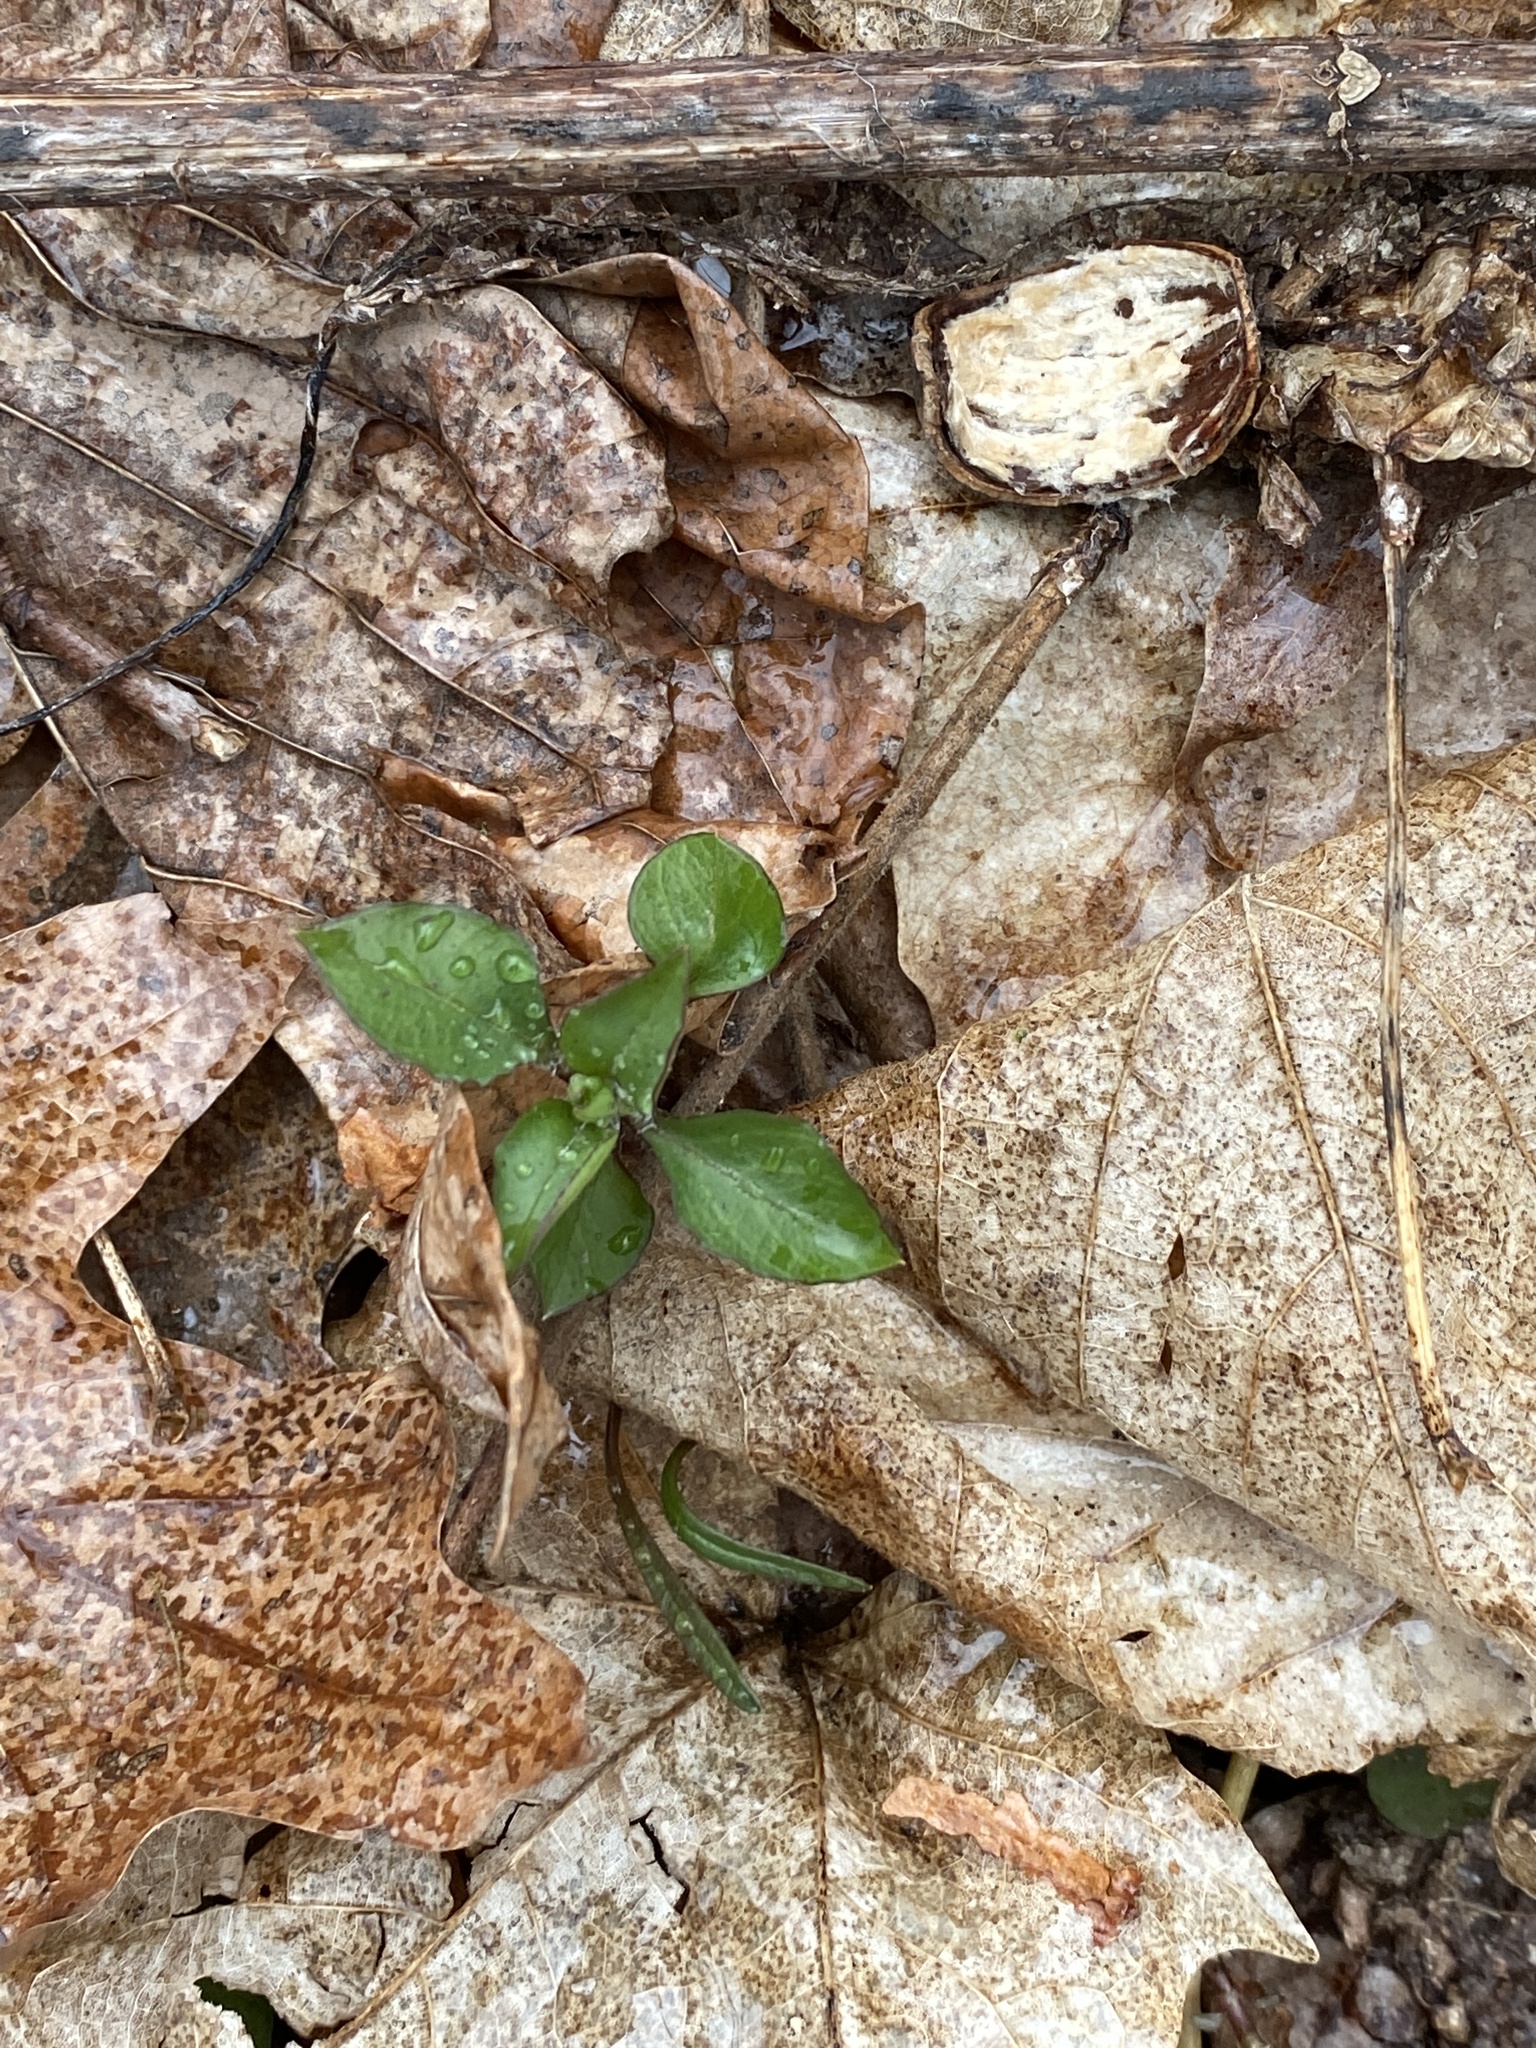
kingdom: Plantae
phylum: Tracheophyta
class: Magnoliopsida
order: Caryophyllales
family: Caryophyllaceae
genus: Stellaria
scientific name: Stellaria pubera
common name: Star chickweed
